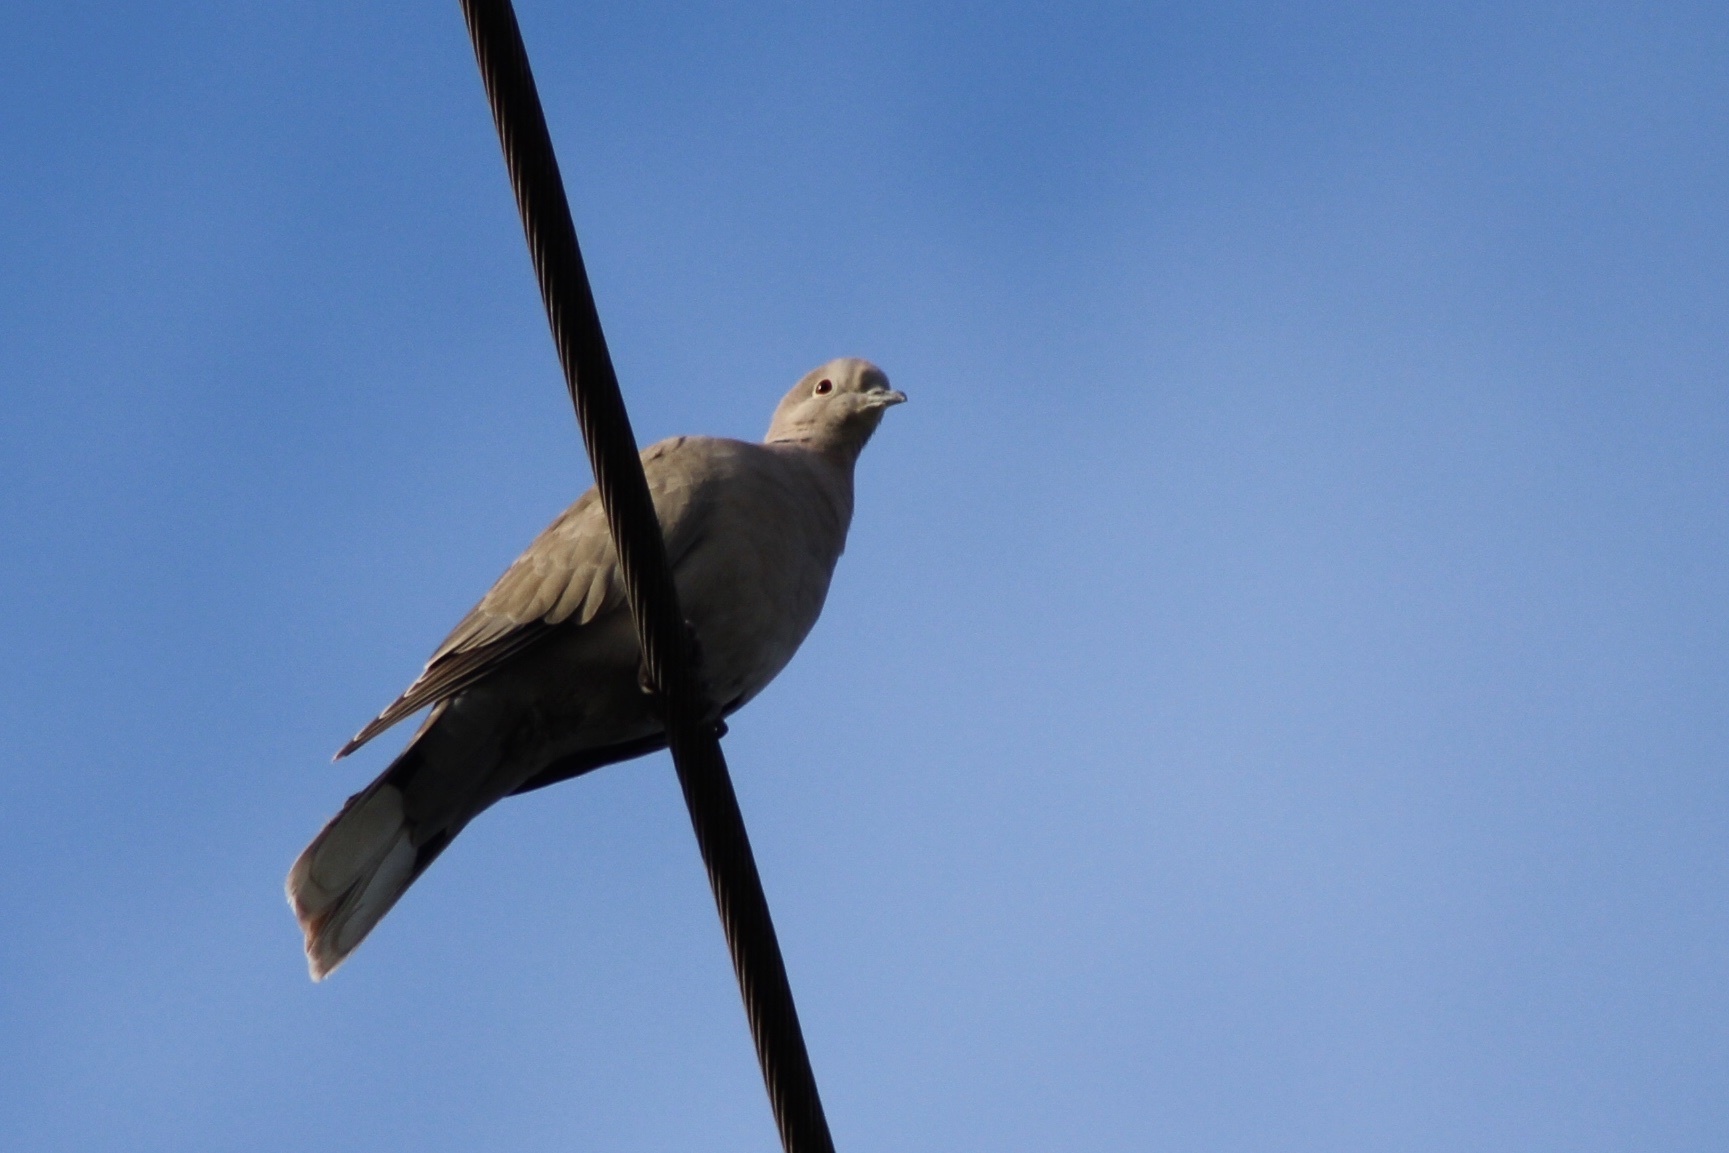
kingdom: Animalia
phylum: Chordata
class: Aves
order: Columbiformes
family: Columbidae
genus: Streptopelia
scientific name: Streptopelia decaocto
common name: Eurasian collared dove
